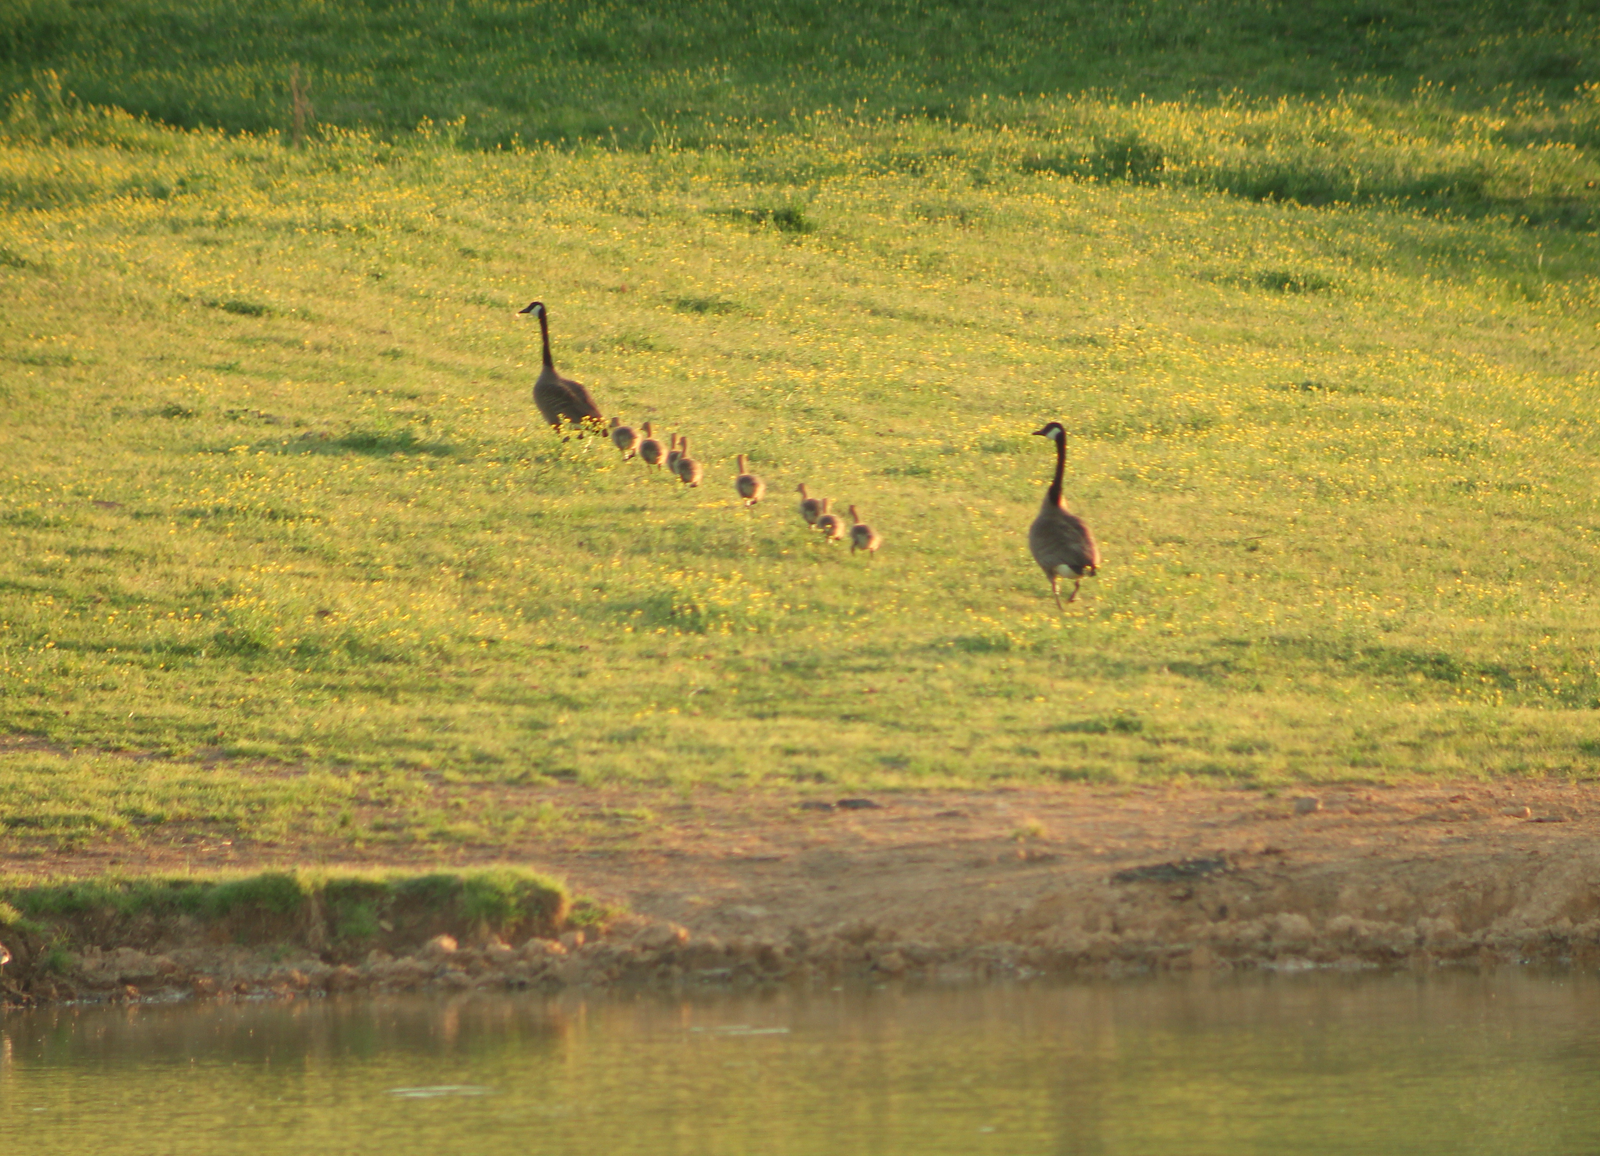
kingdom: Animalia
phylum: Chordata
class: Aves
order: Anseriformes
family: Anatidae
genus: Branta
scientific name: Branta canadensis
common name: Canada goose
